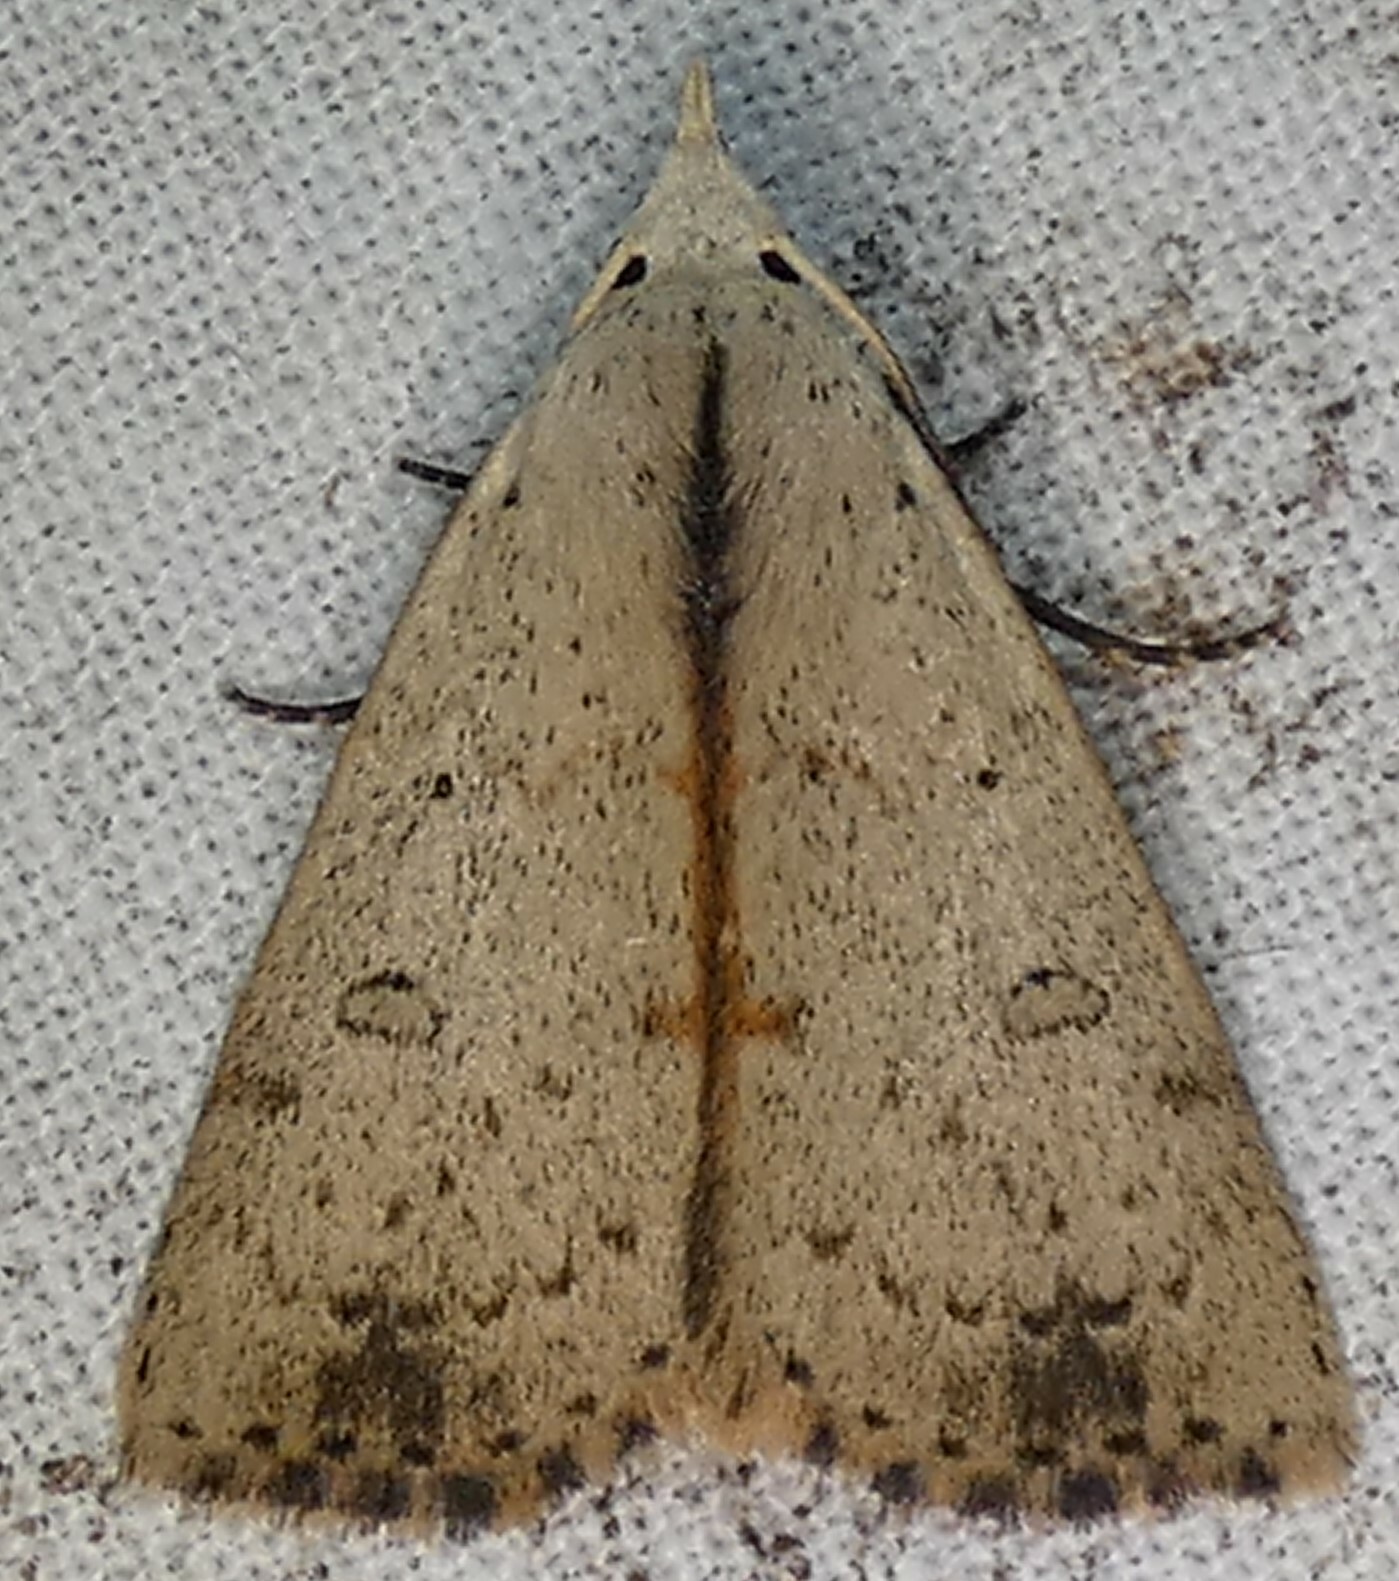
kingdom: Animalia
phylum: Arthropoda
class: Insecta
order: Lepidoptera
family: Erebidae
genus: Scolecocampa
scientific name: Scolecocampa liburna
